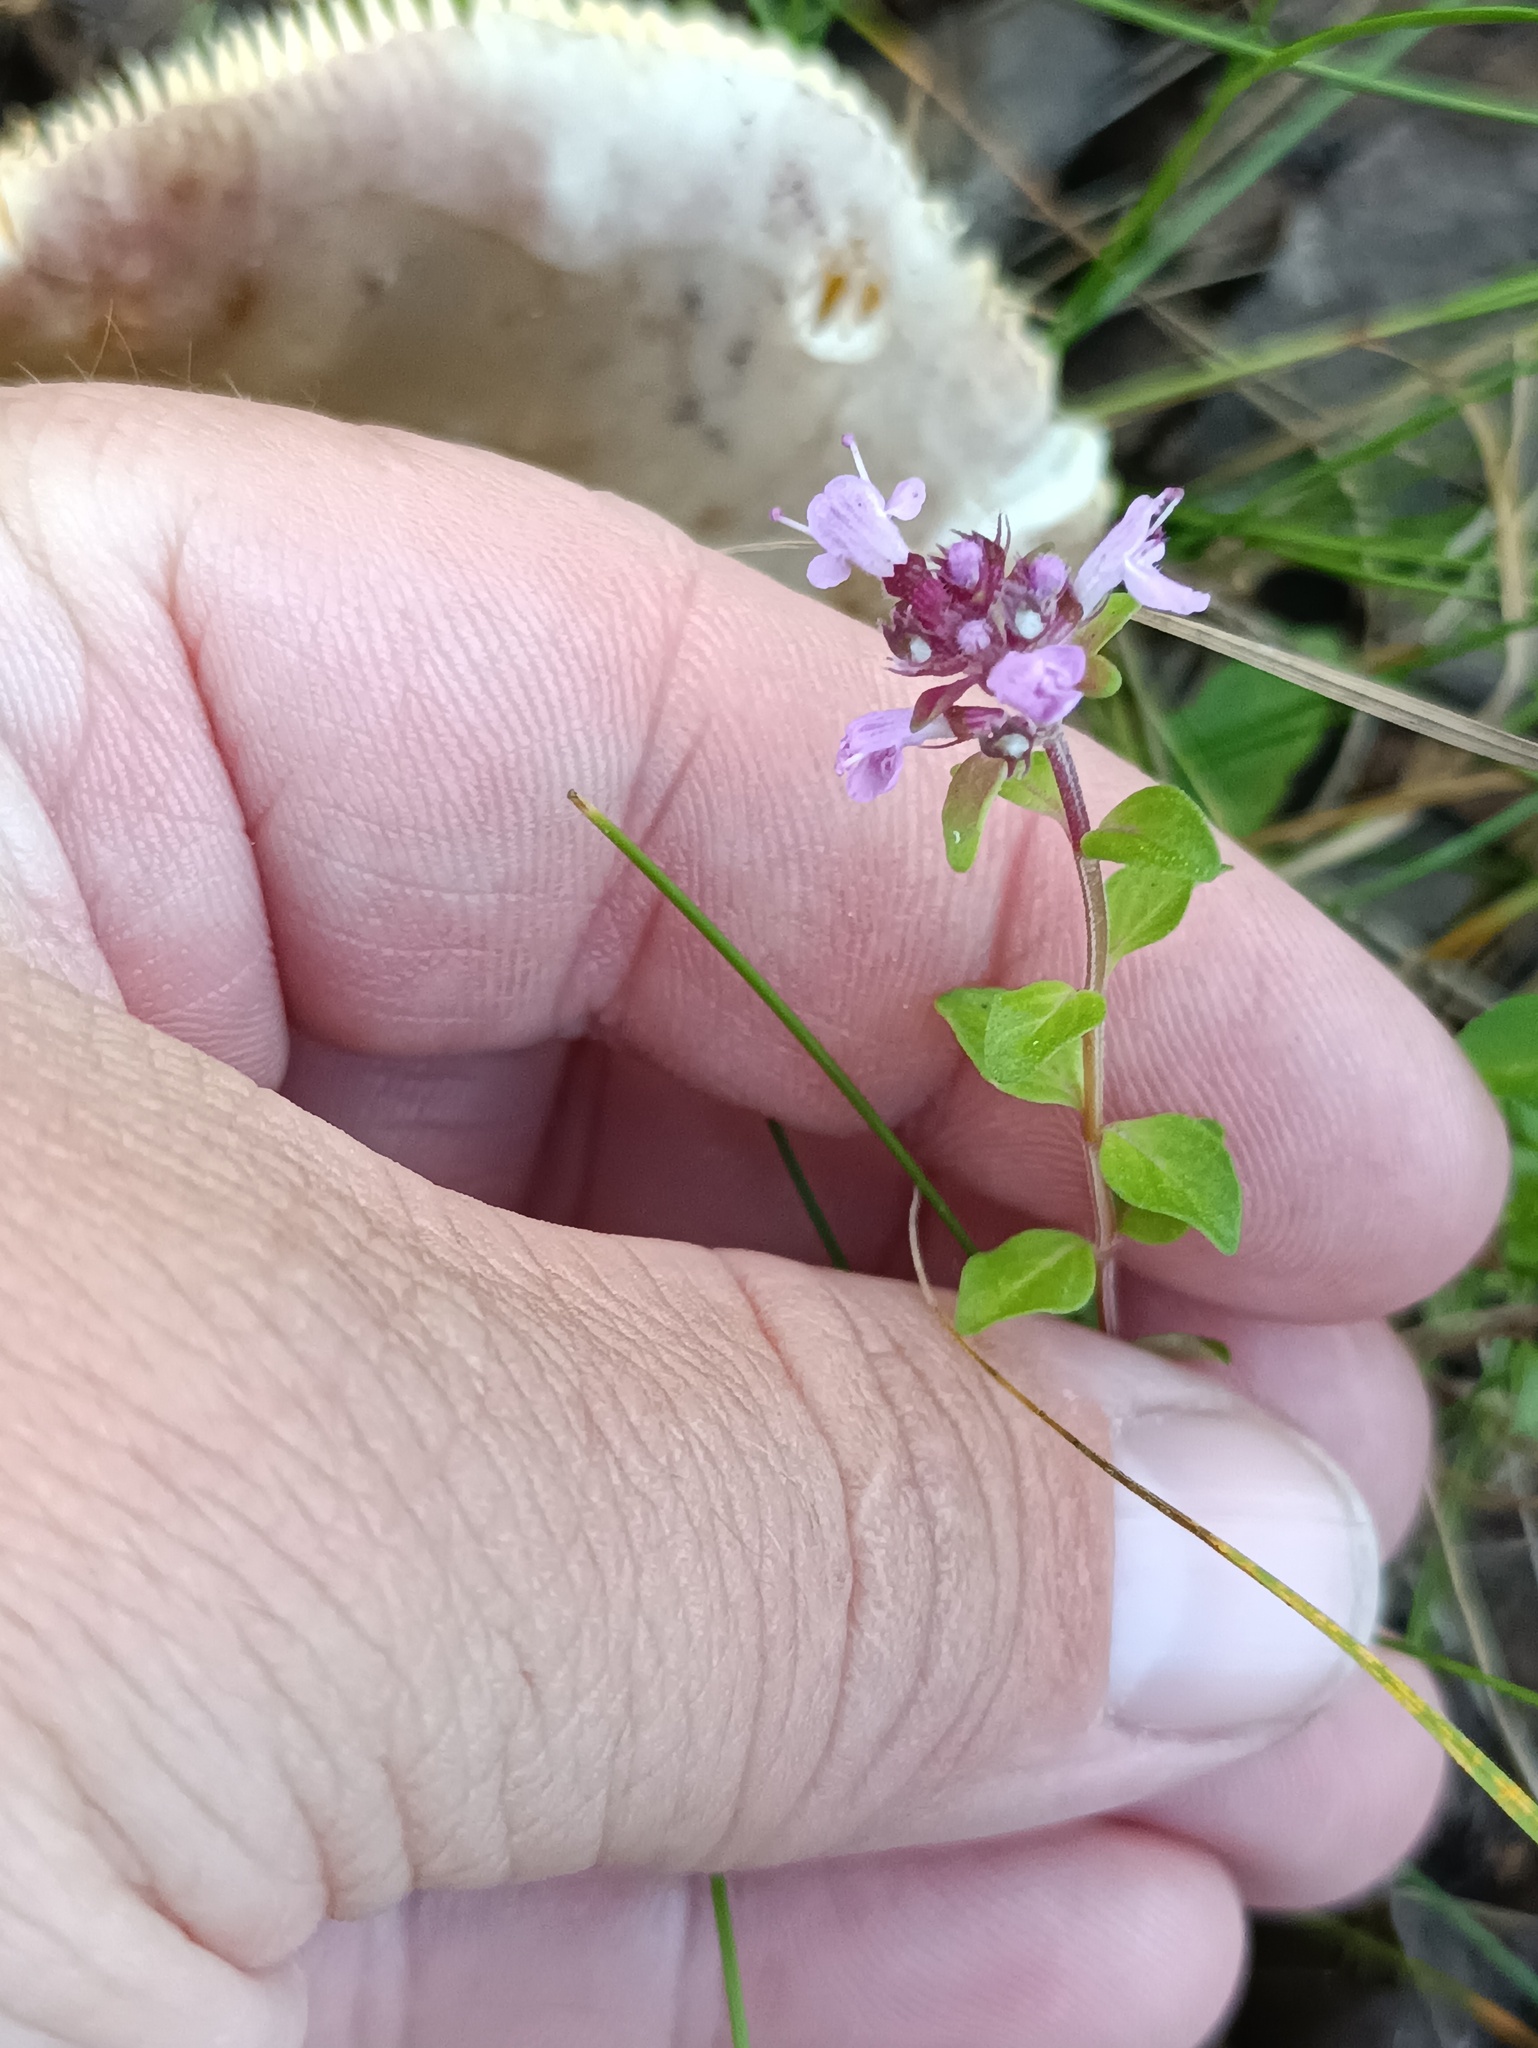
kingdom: Plantae
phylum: Tracheophyta
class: Magnoliopsida
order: Lamiales
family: Lamiaceae
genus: Thymus
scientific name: Thymus pulegioides
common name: Large thyme
